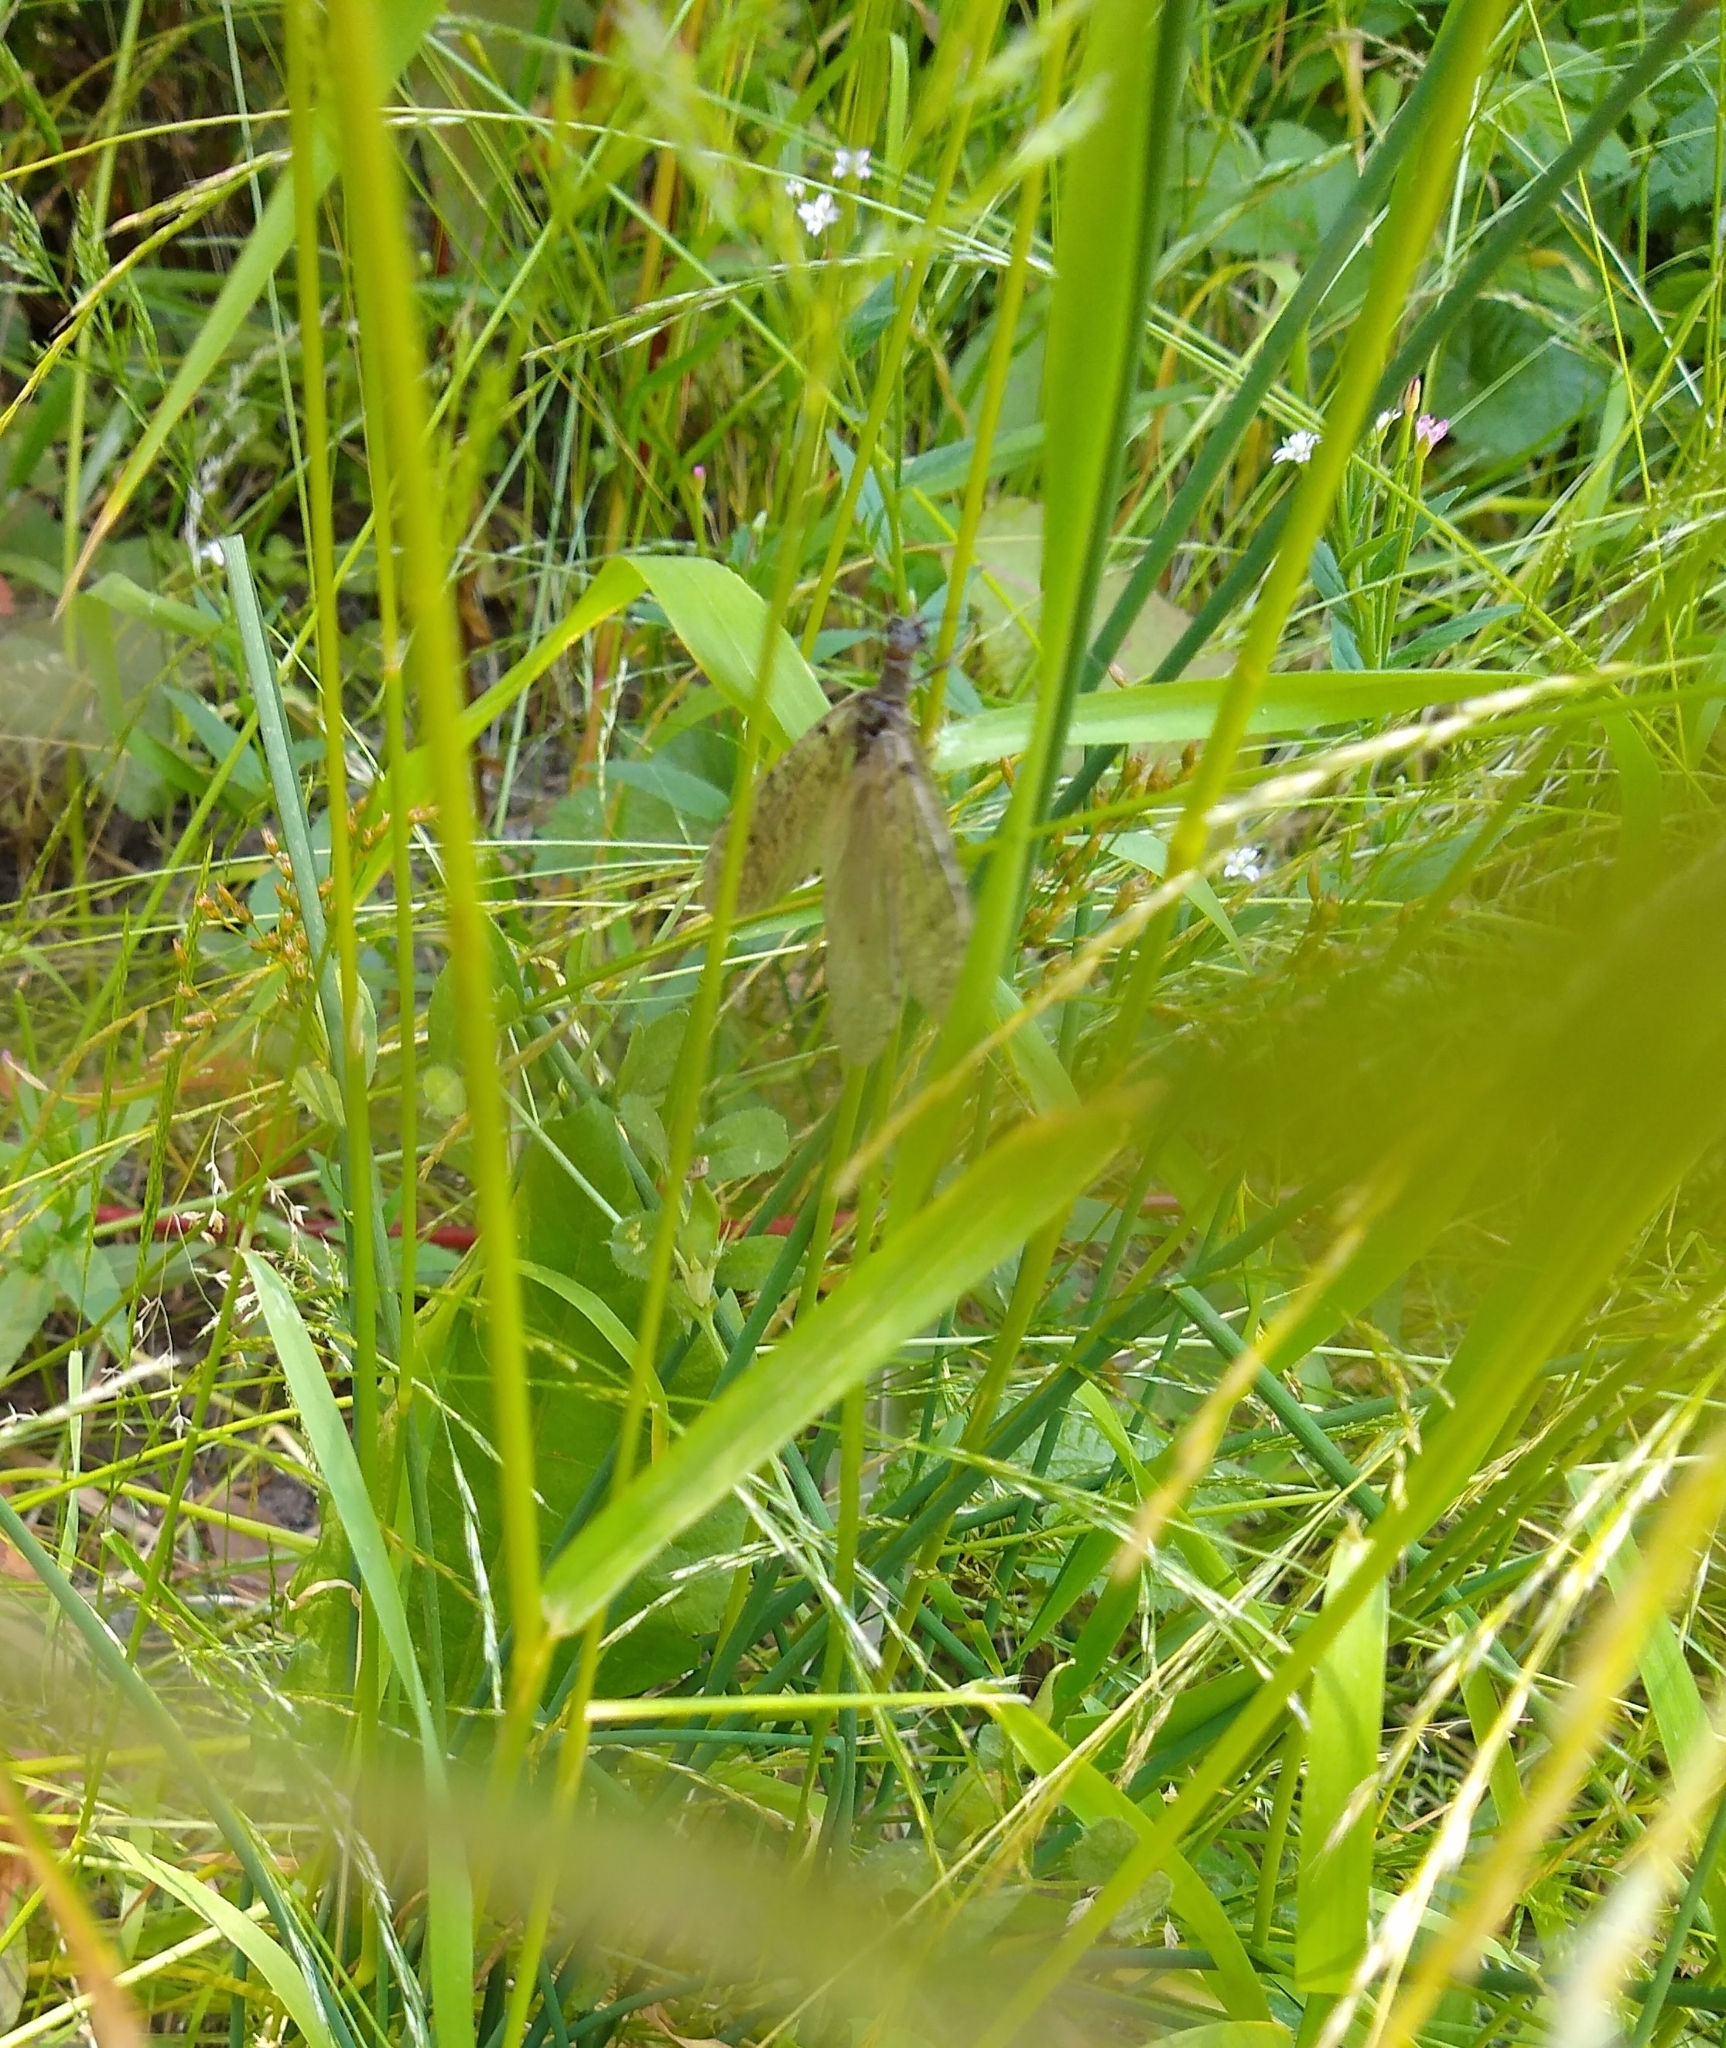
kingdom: Animalia
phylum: Arthropoda
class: Insecta
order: Megaloptera
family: Corydalidae
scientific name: Corydalidae
